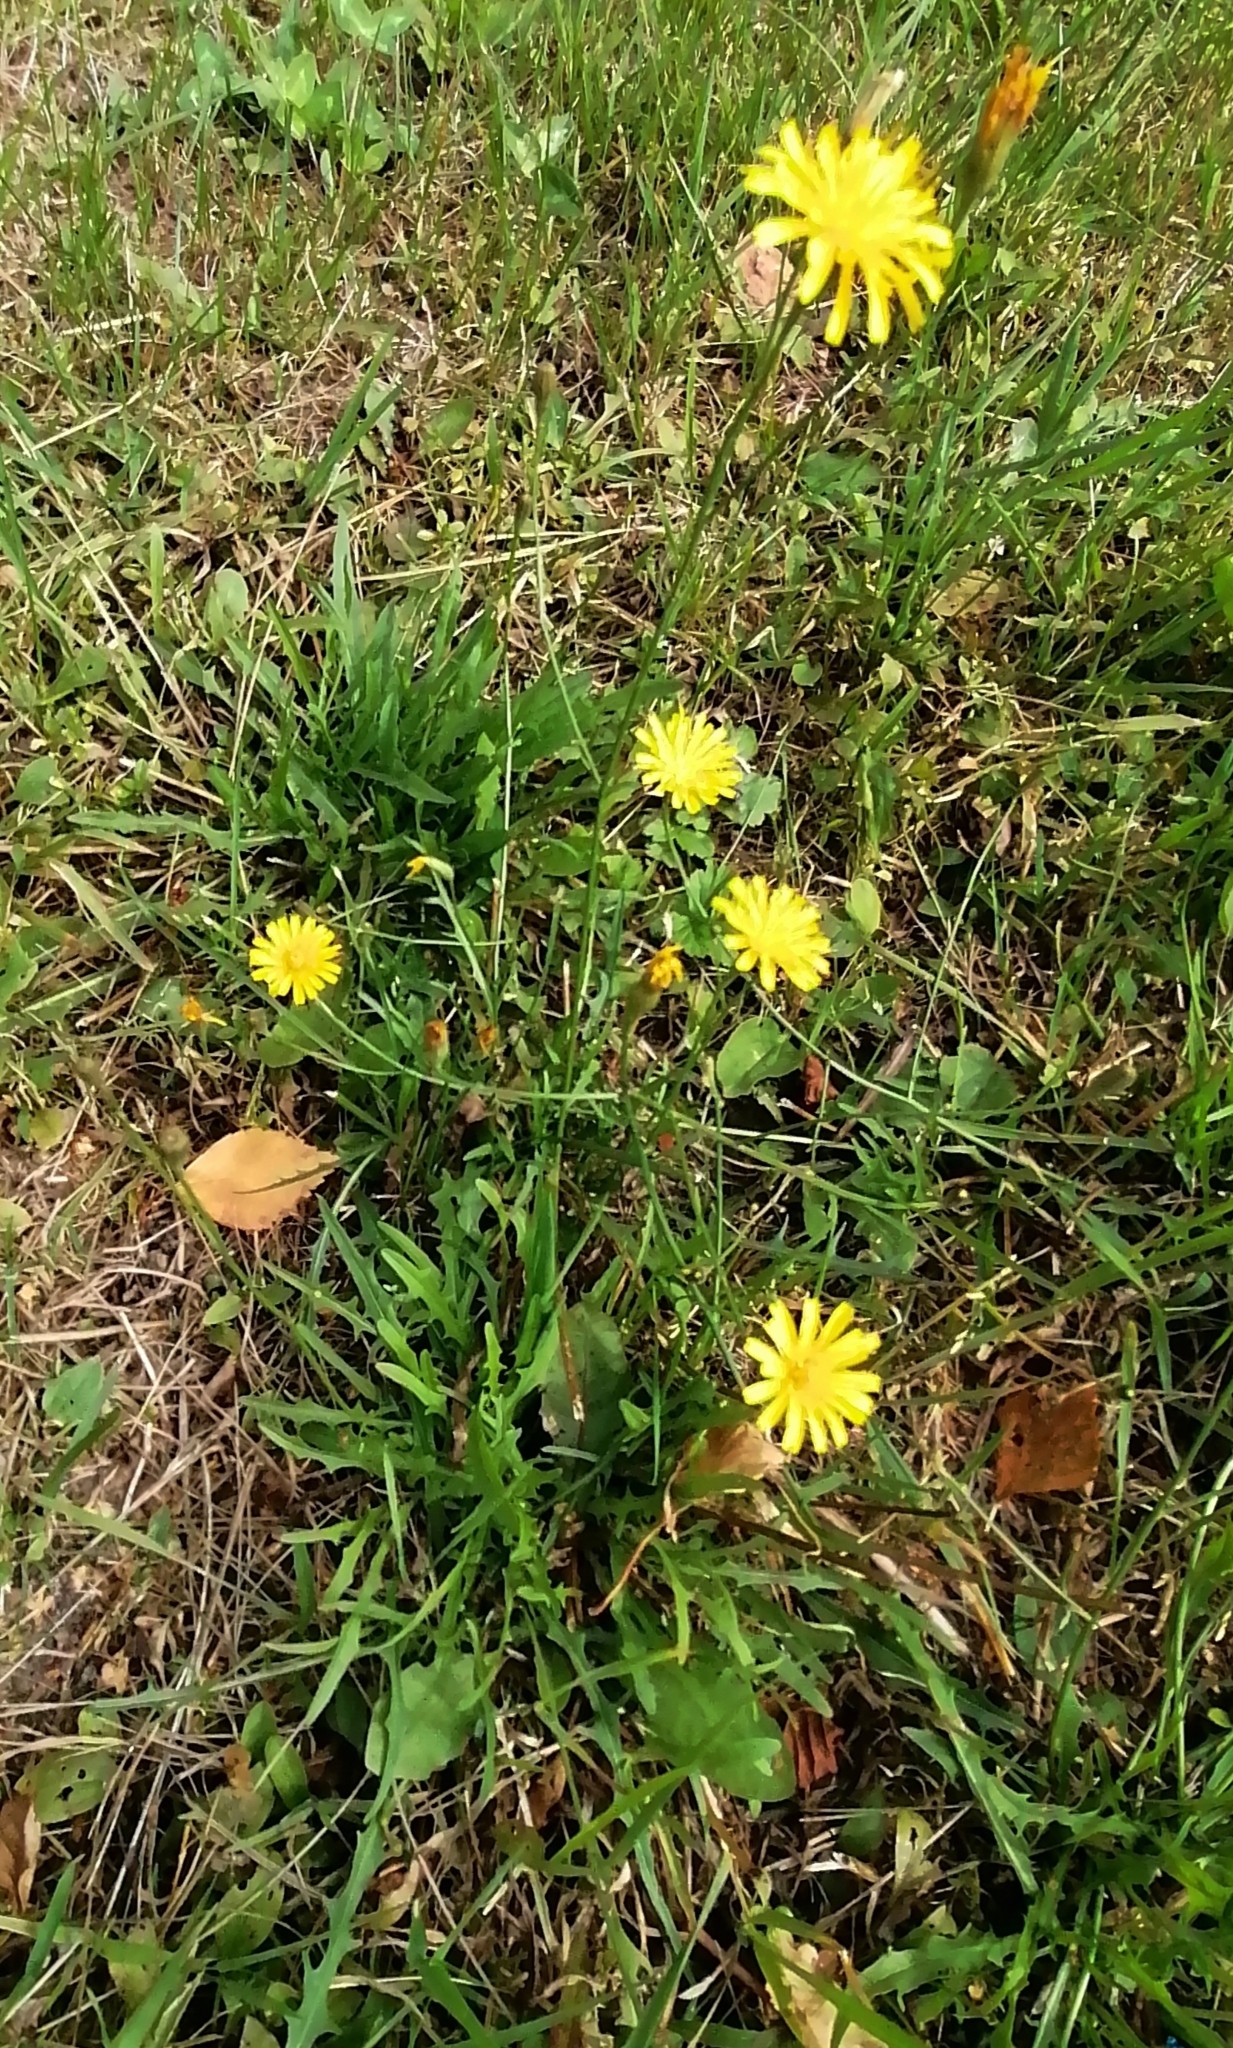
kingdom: Plantae
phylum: Tracheophyta
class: Magnoliopsida
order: Asterales
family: Asteraceae
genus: Scorzoneroides
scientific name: Scorzoneroides autumnalis
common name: Autumn hawkbit
